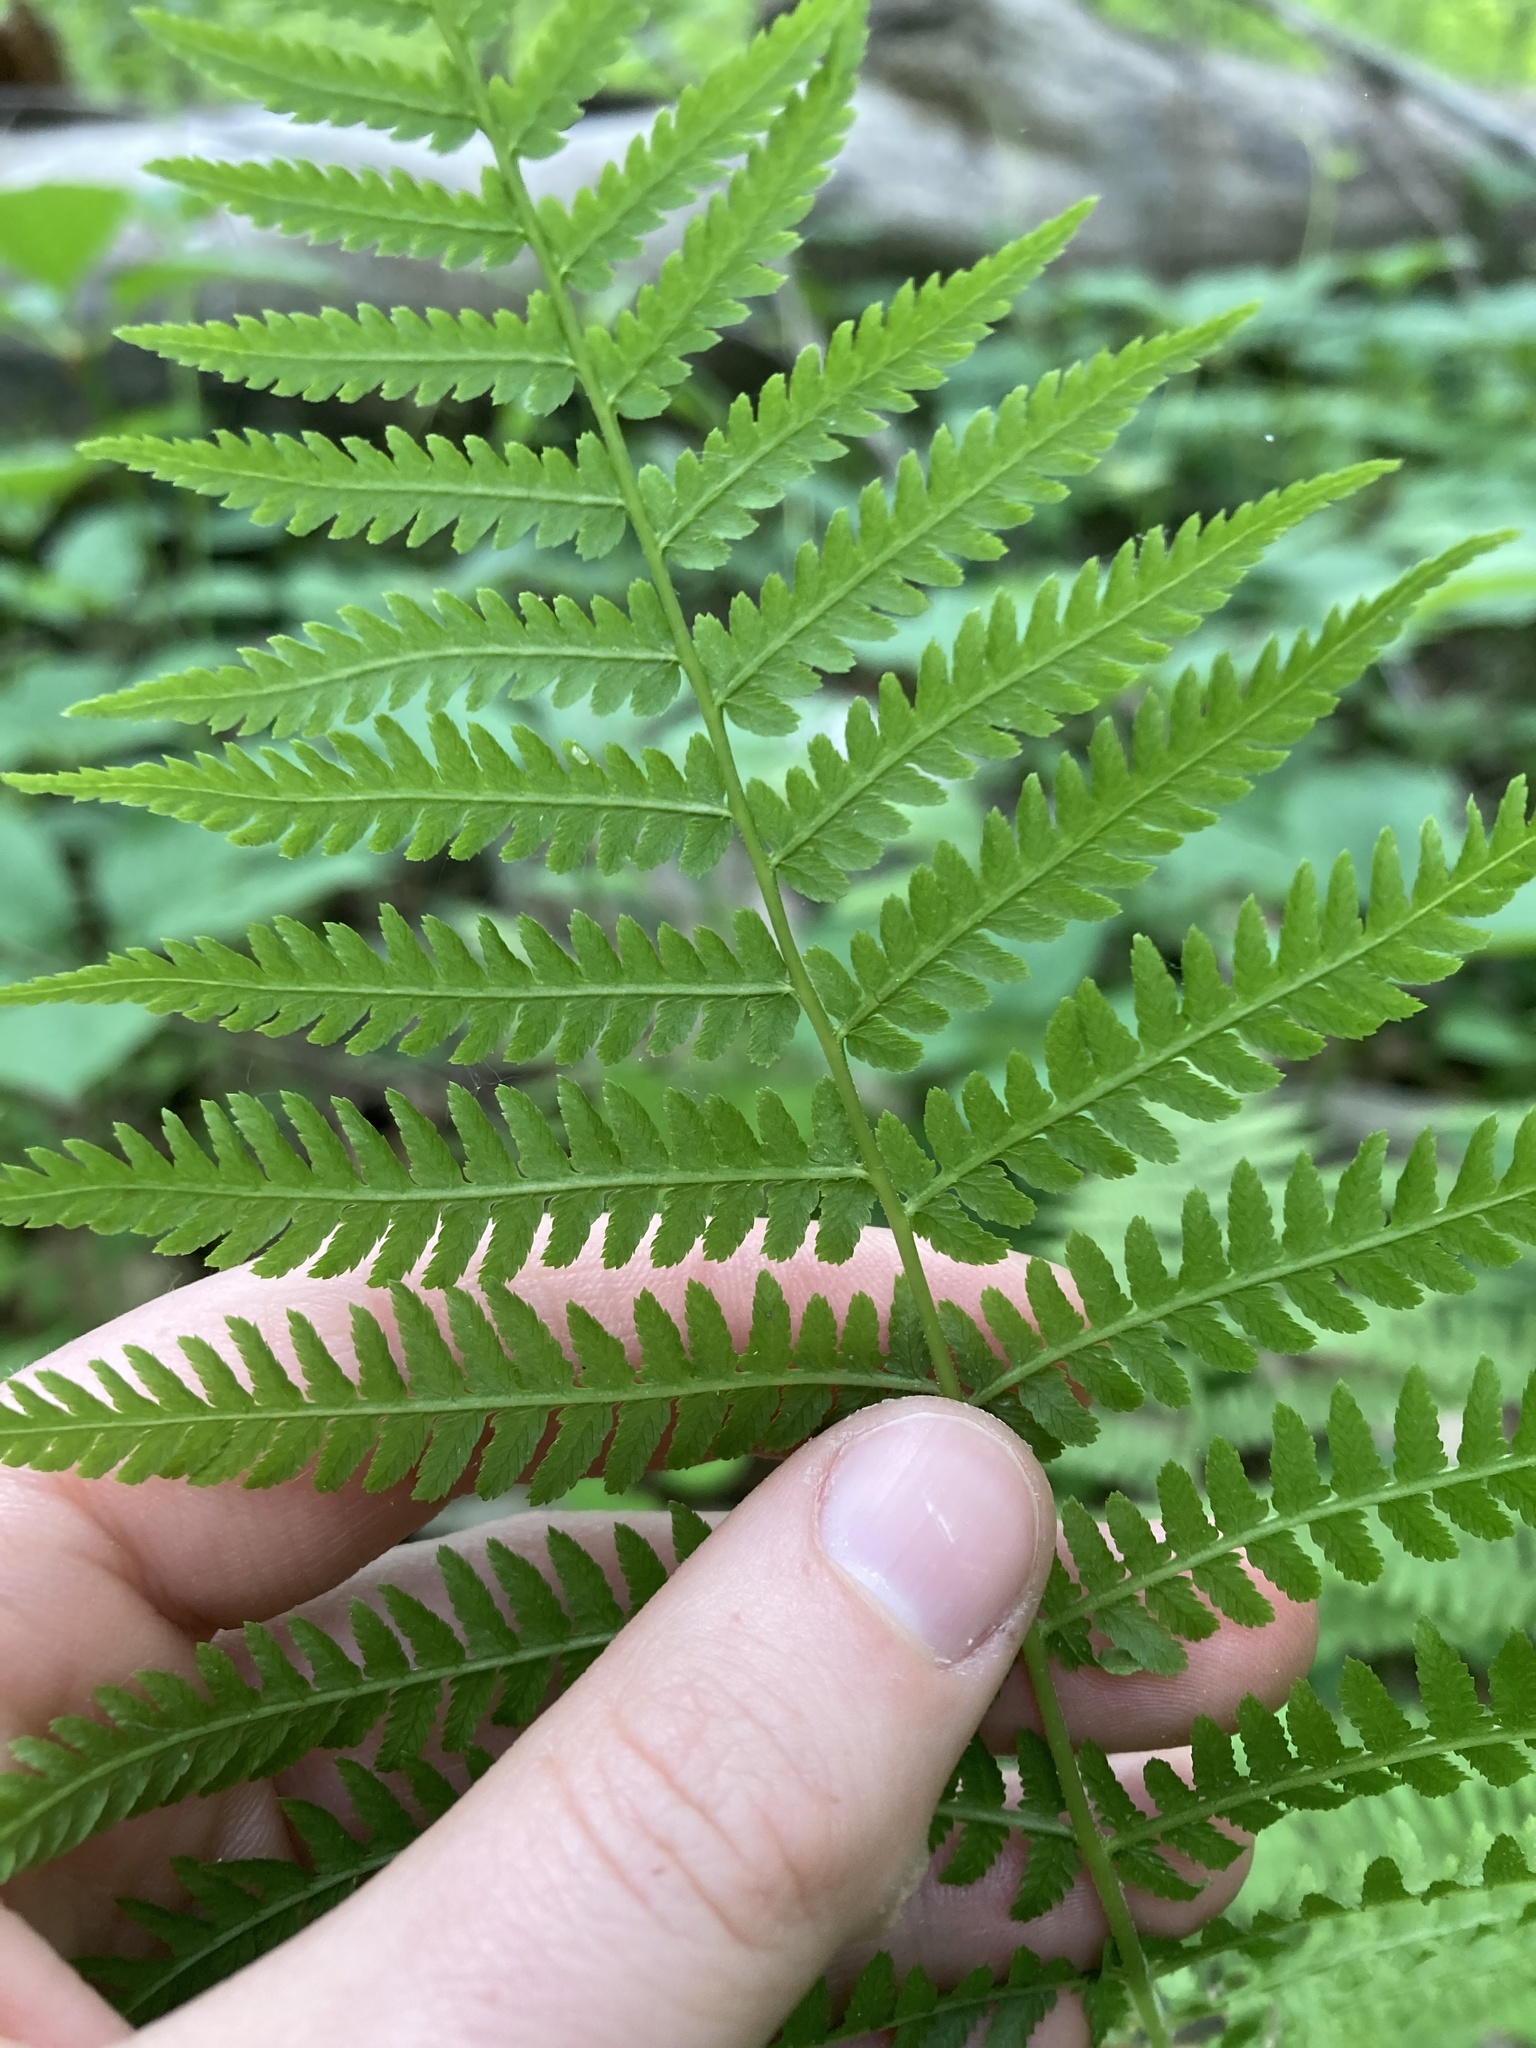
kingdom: Plantae
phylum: Tracheophyta
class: Polypodiopsida
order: Polypodiales
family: Athyriaceae
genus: Athyrium
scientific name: Athyrium angustum
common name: Northern lady fern
